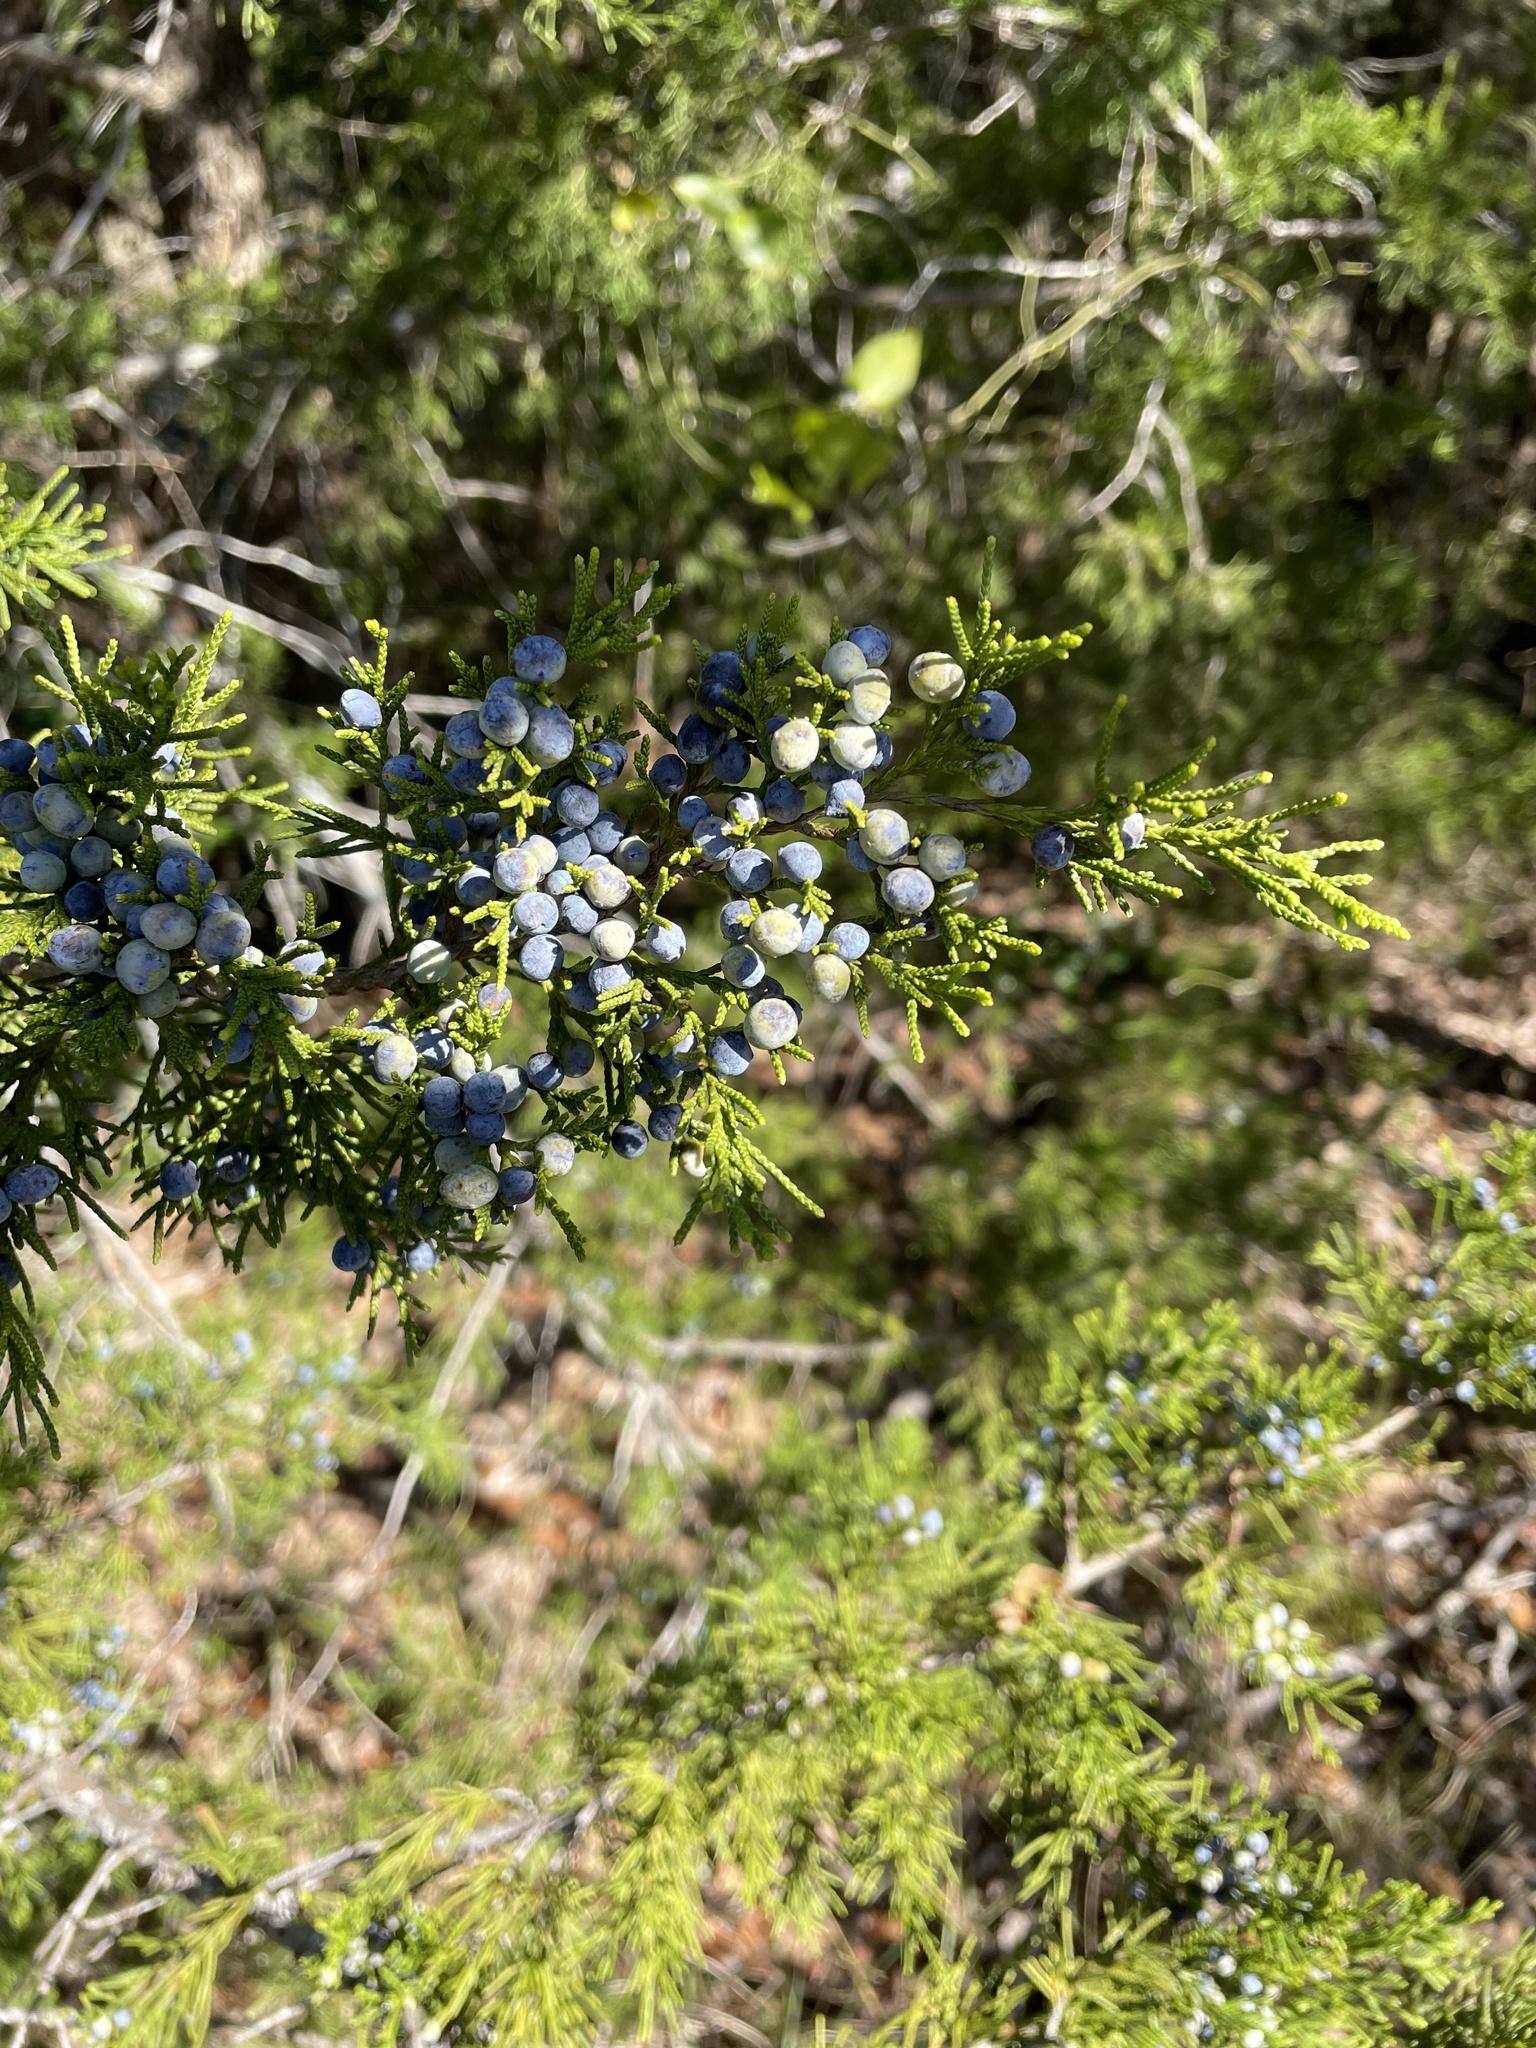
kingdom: Plantae
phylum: Tracheophyta
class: Pinopsida
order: Pinales
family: Cupressaceae
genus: Juniperus
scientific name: Juniperus virginiana
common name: Red juniper
